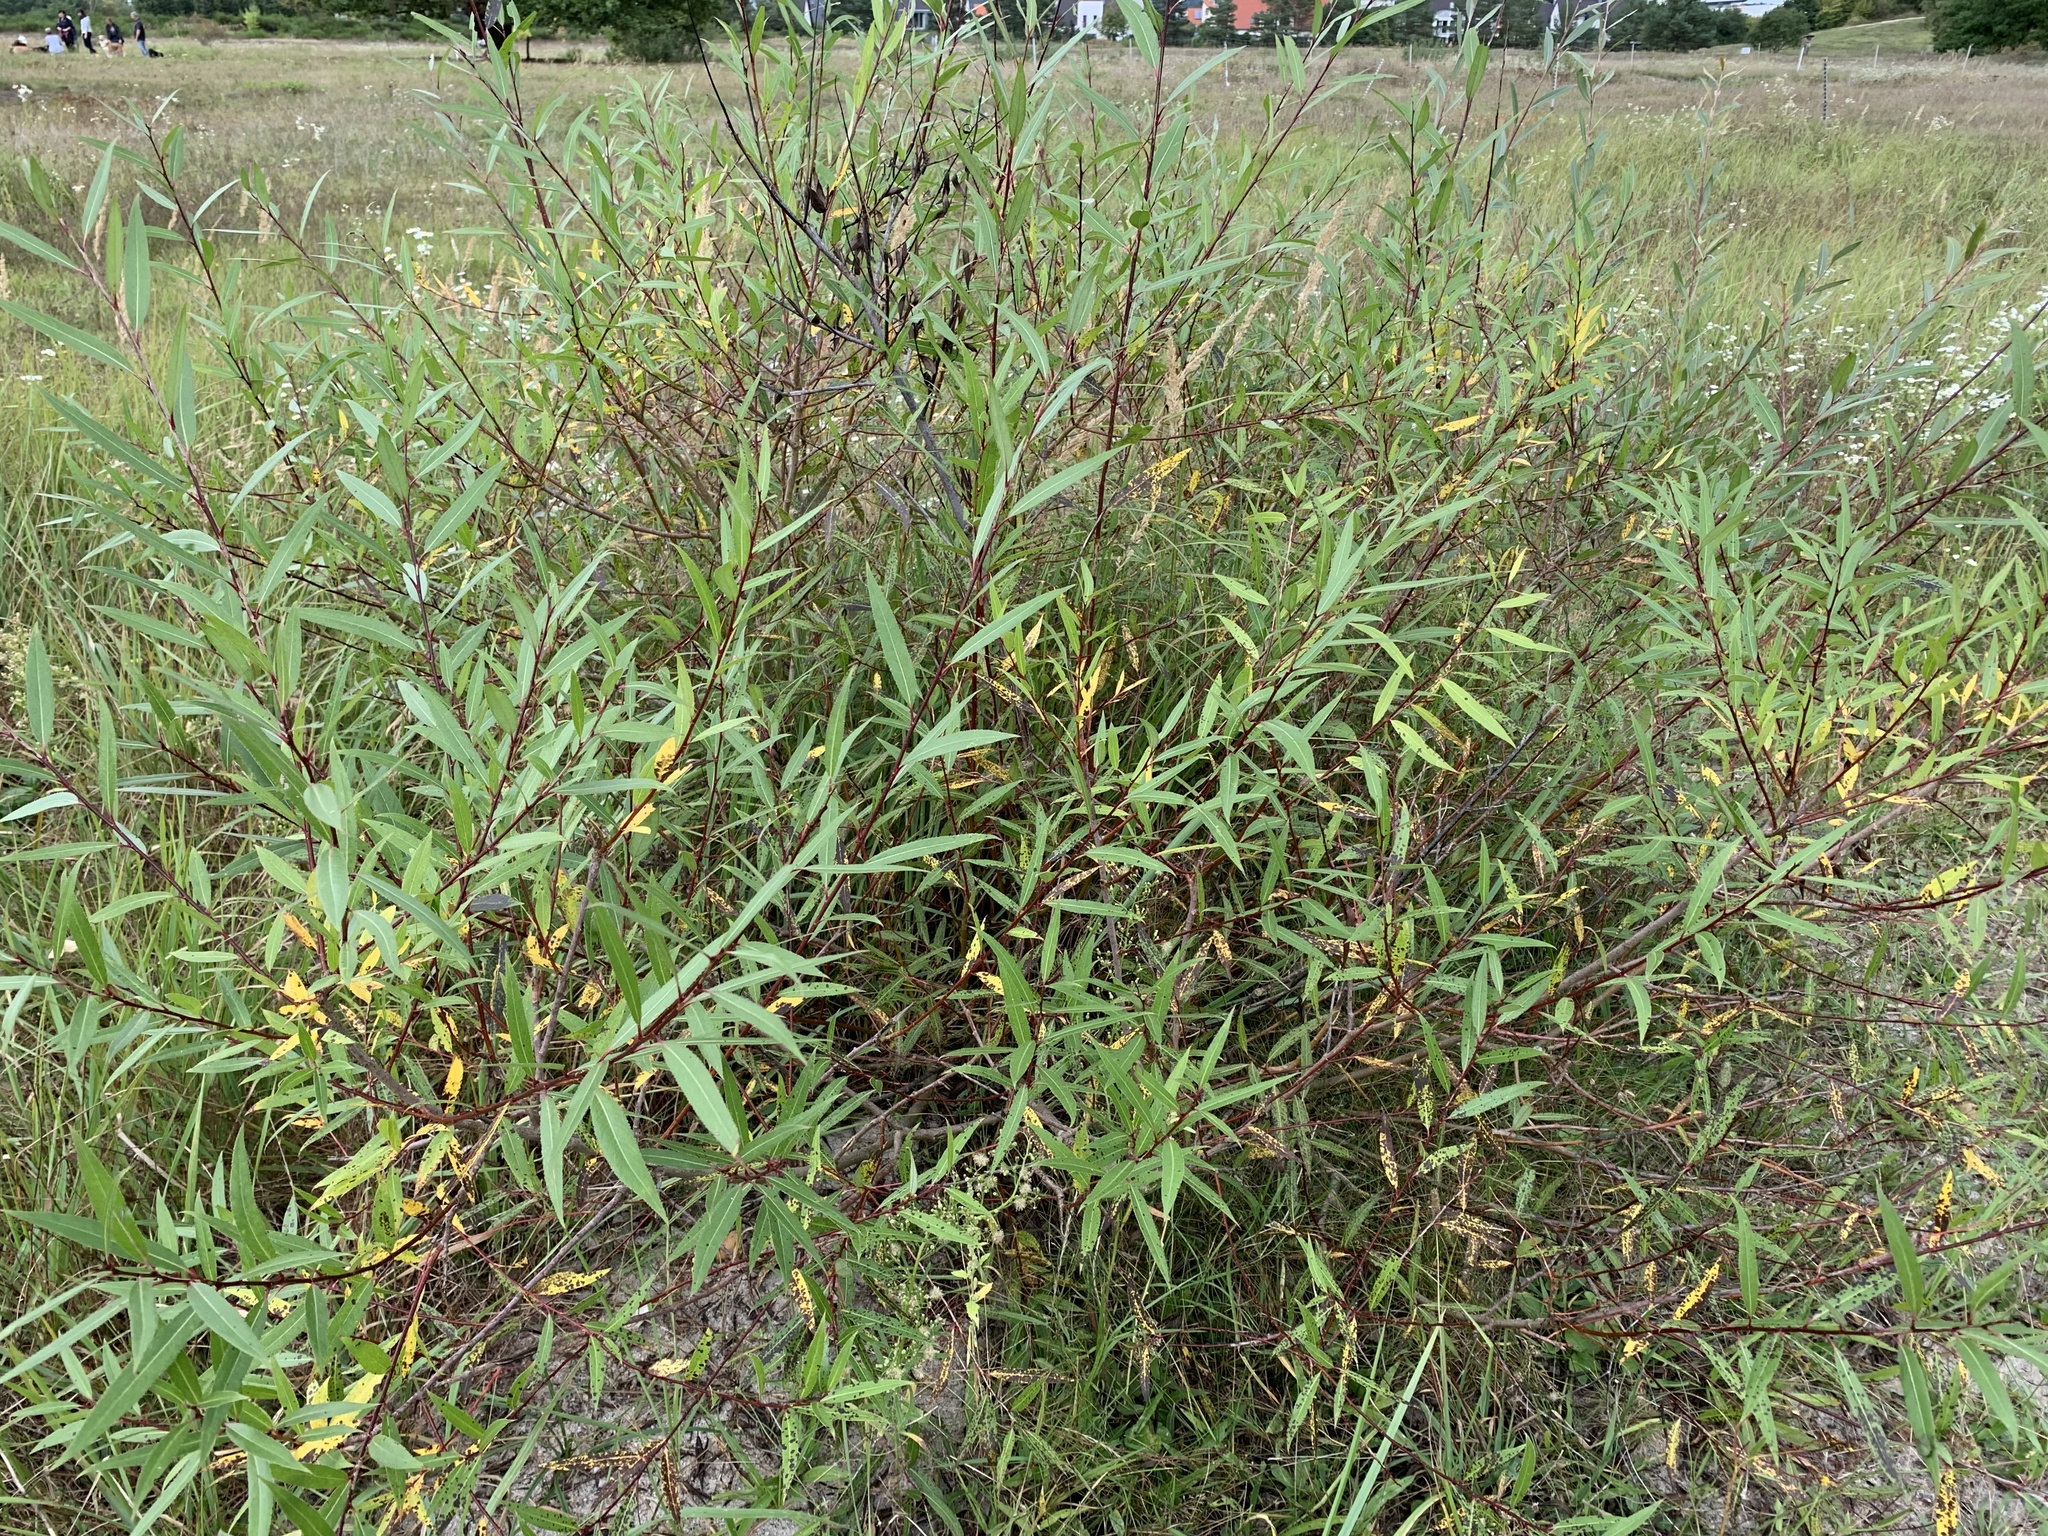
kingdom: Plantae
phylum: Tracheophyta
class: Magnoliopsida
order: Malpighiales
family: Salicaceae
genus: Salix
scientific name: Salix fragilis
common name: Crack willow
